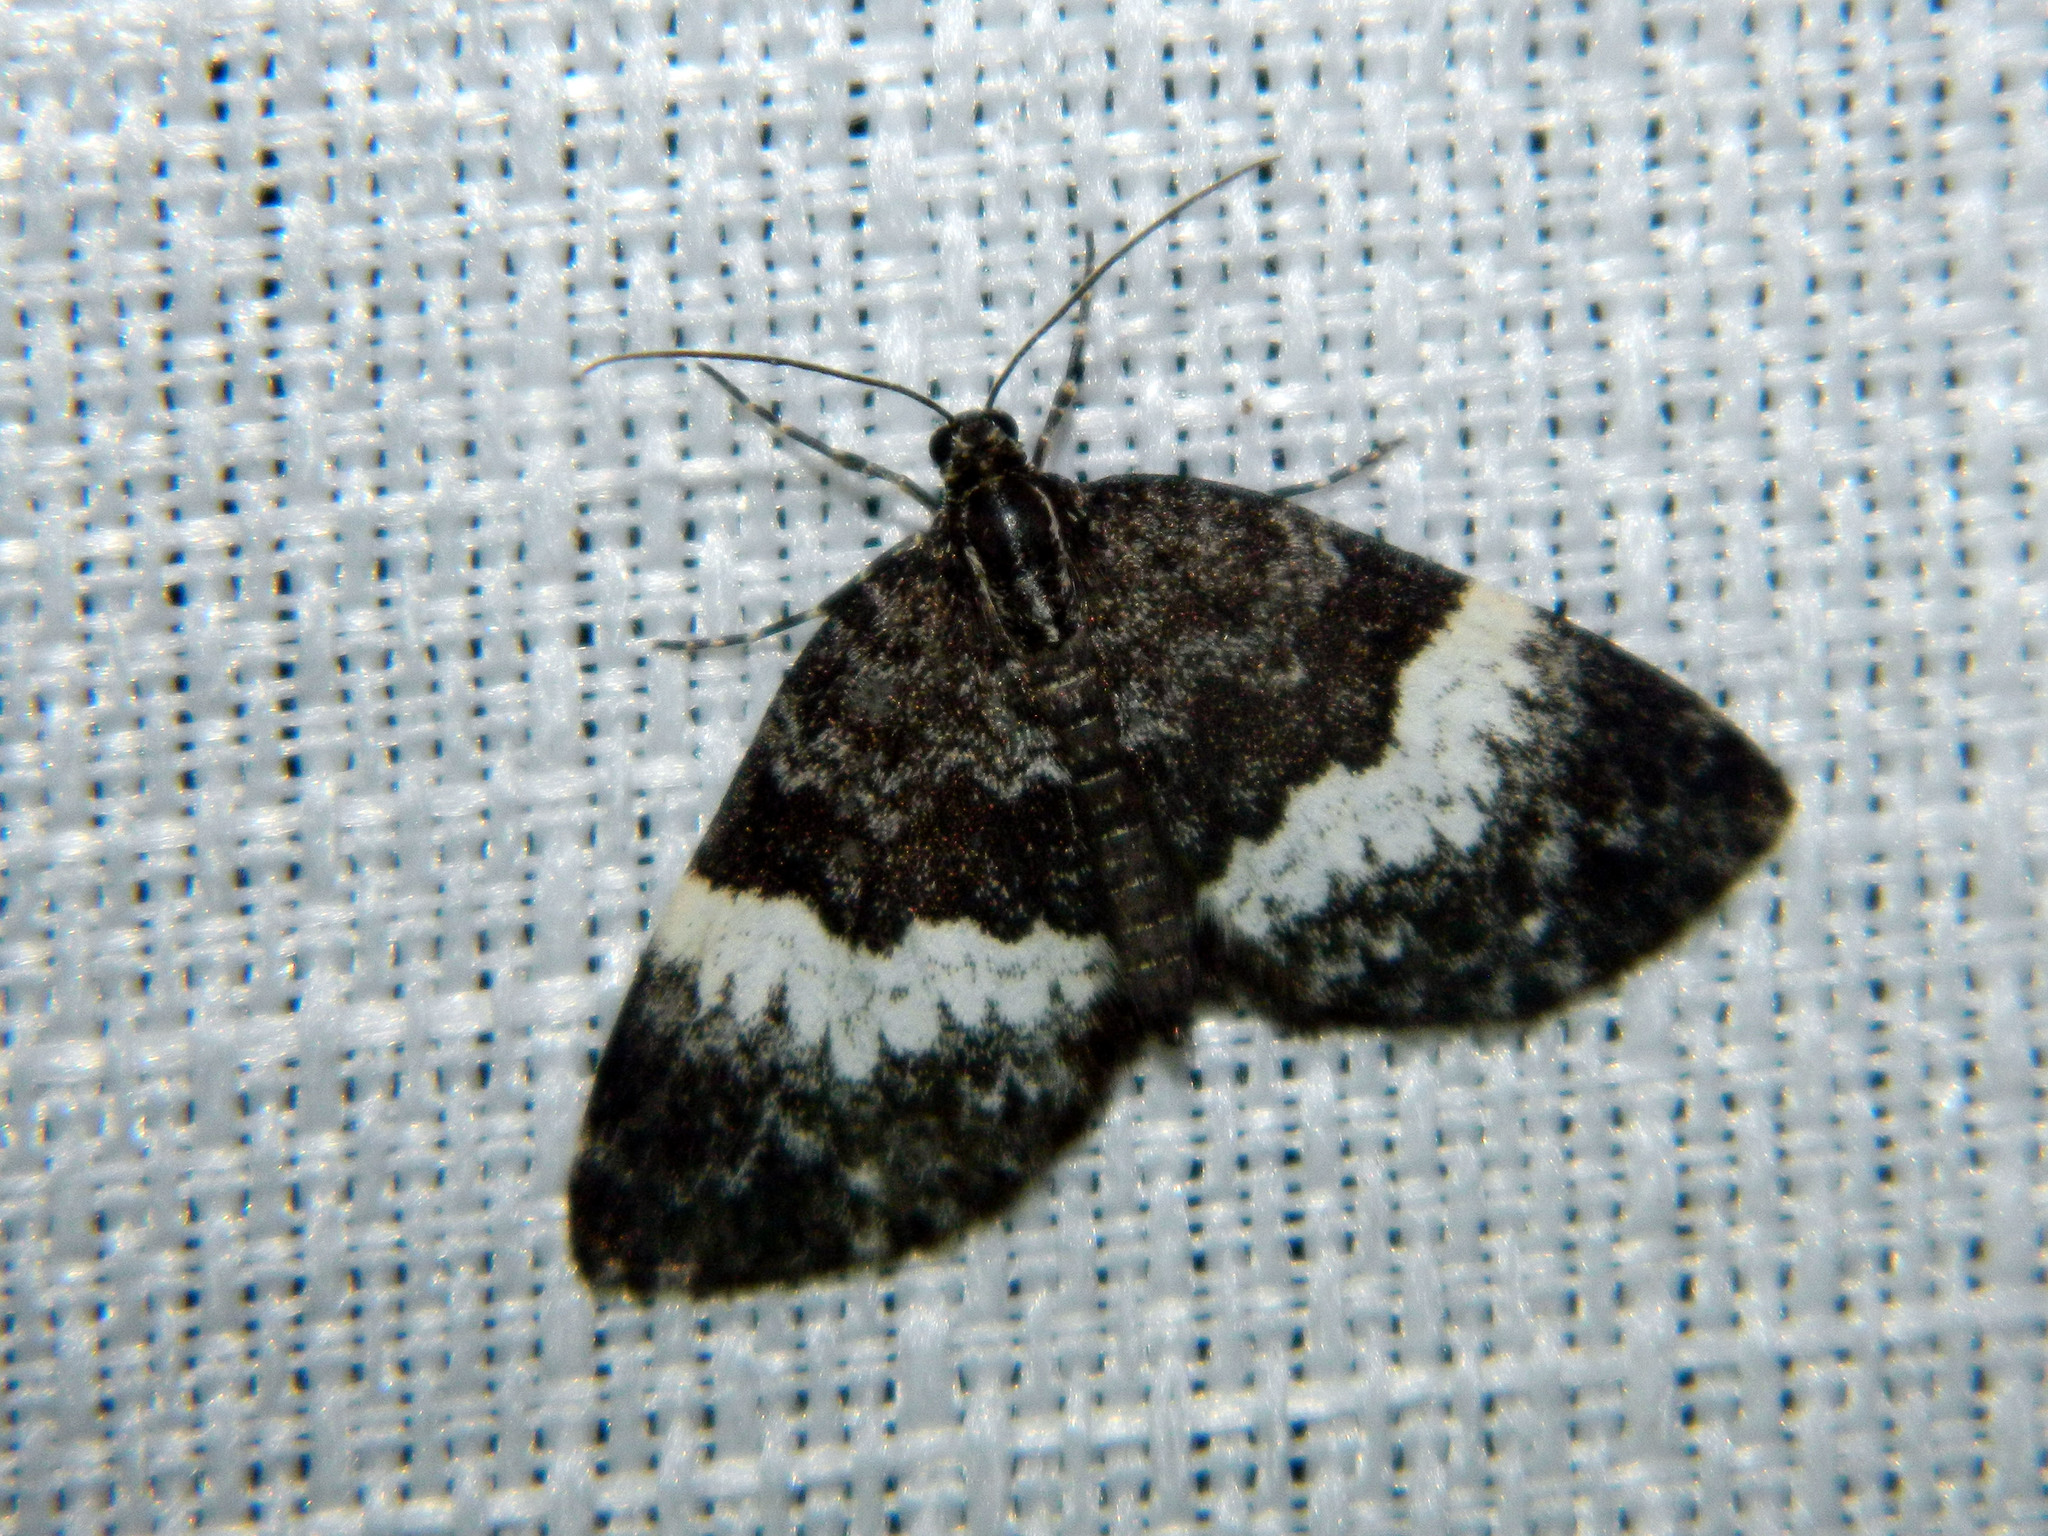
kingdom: Animalia
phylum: Arthropoda
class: Insecta
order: Lepidoptera
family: Geometridae
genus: Spargania
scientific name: Spargania luctuata
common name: White-banded carpet
